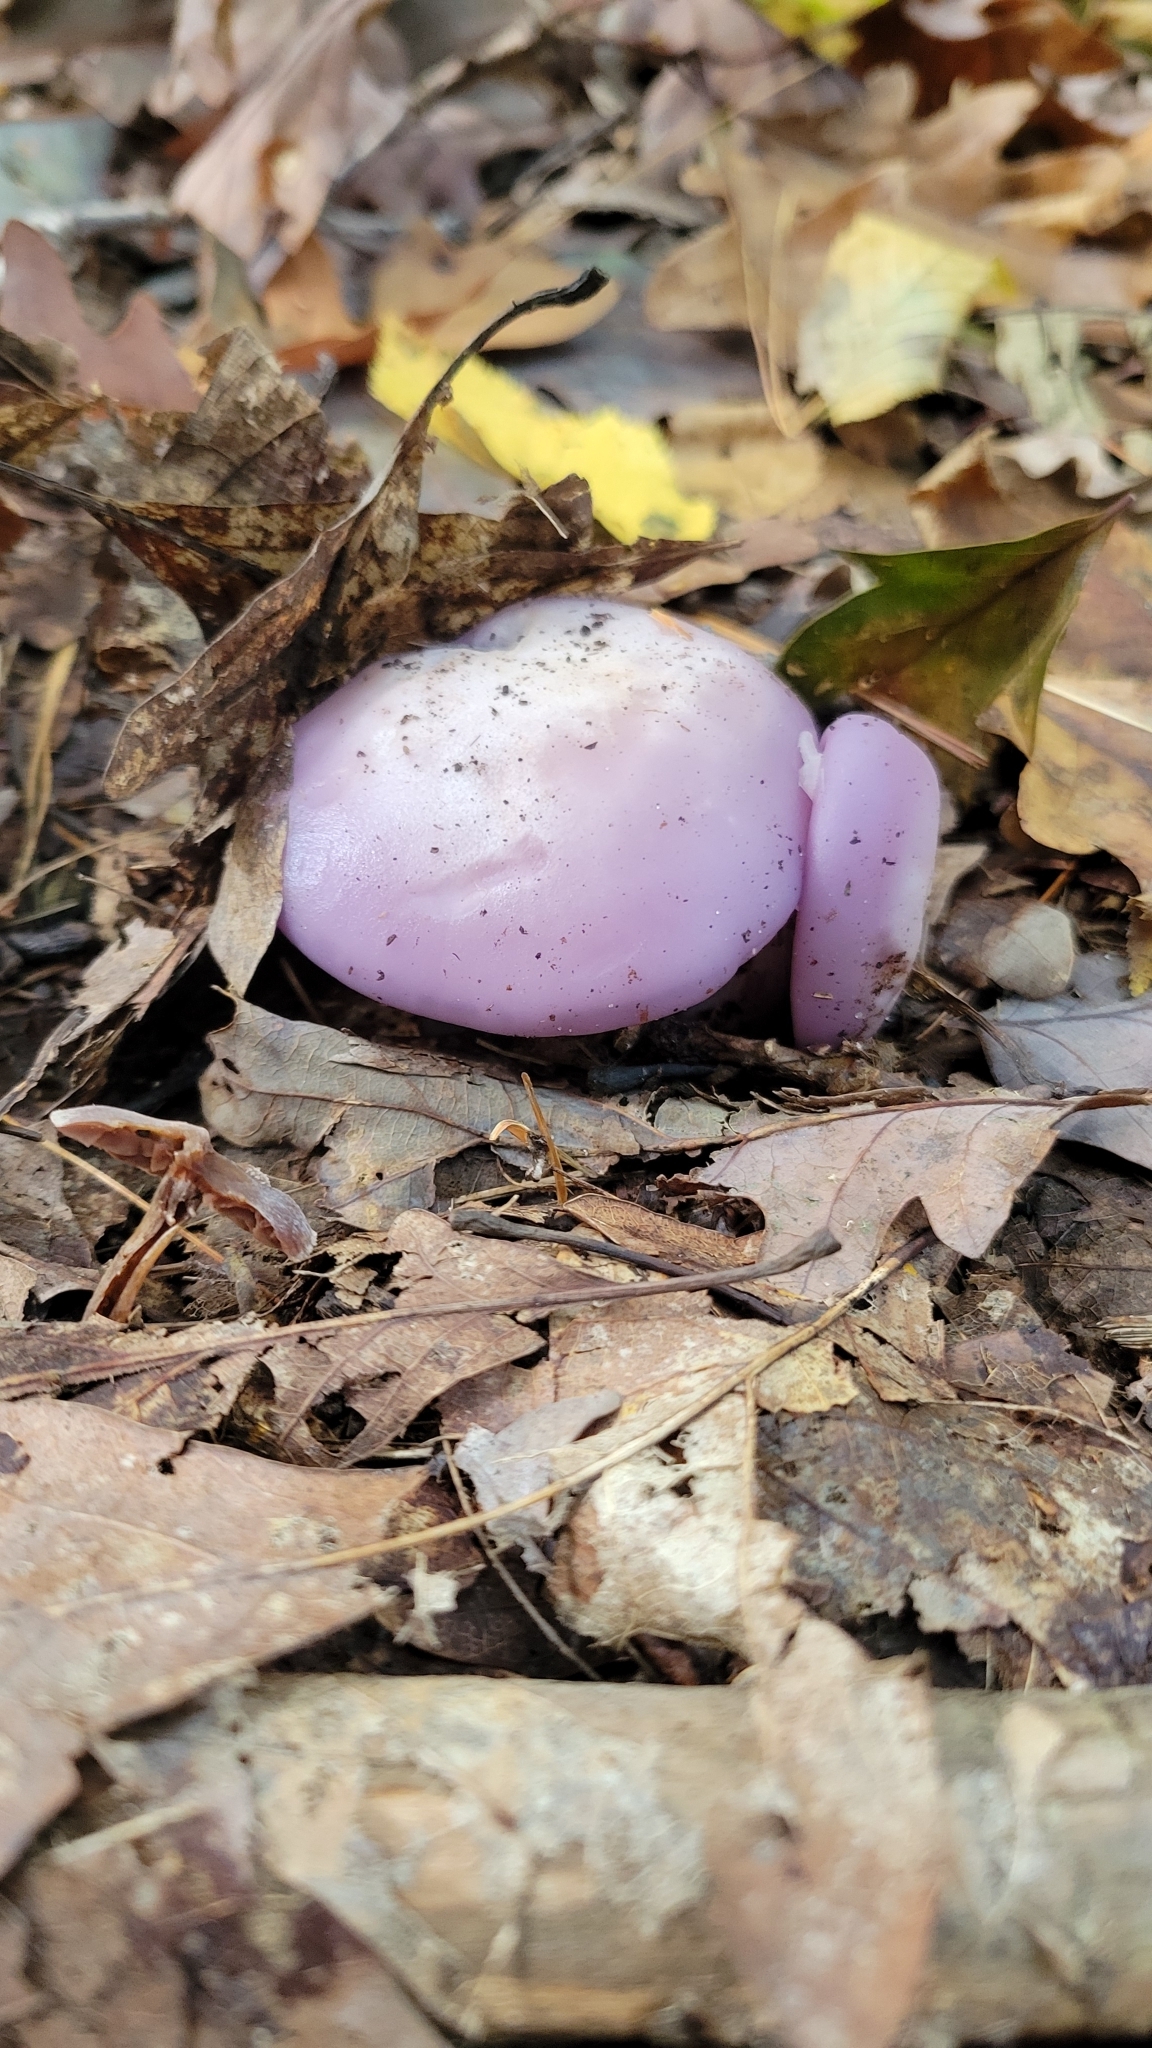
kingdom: Fungi
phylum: Basidiomycota
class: Agaricomycetes
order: Agaricales
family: Tricholomataceae
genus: Collybia
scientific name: Collybia
